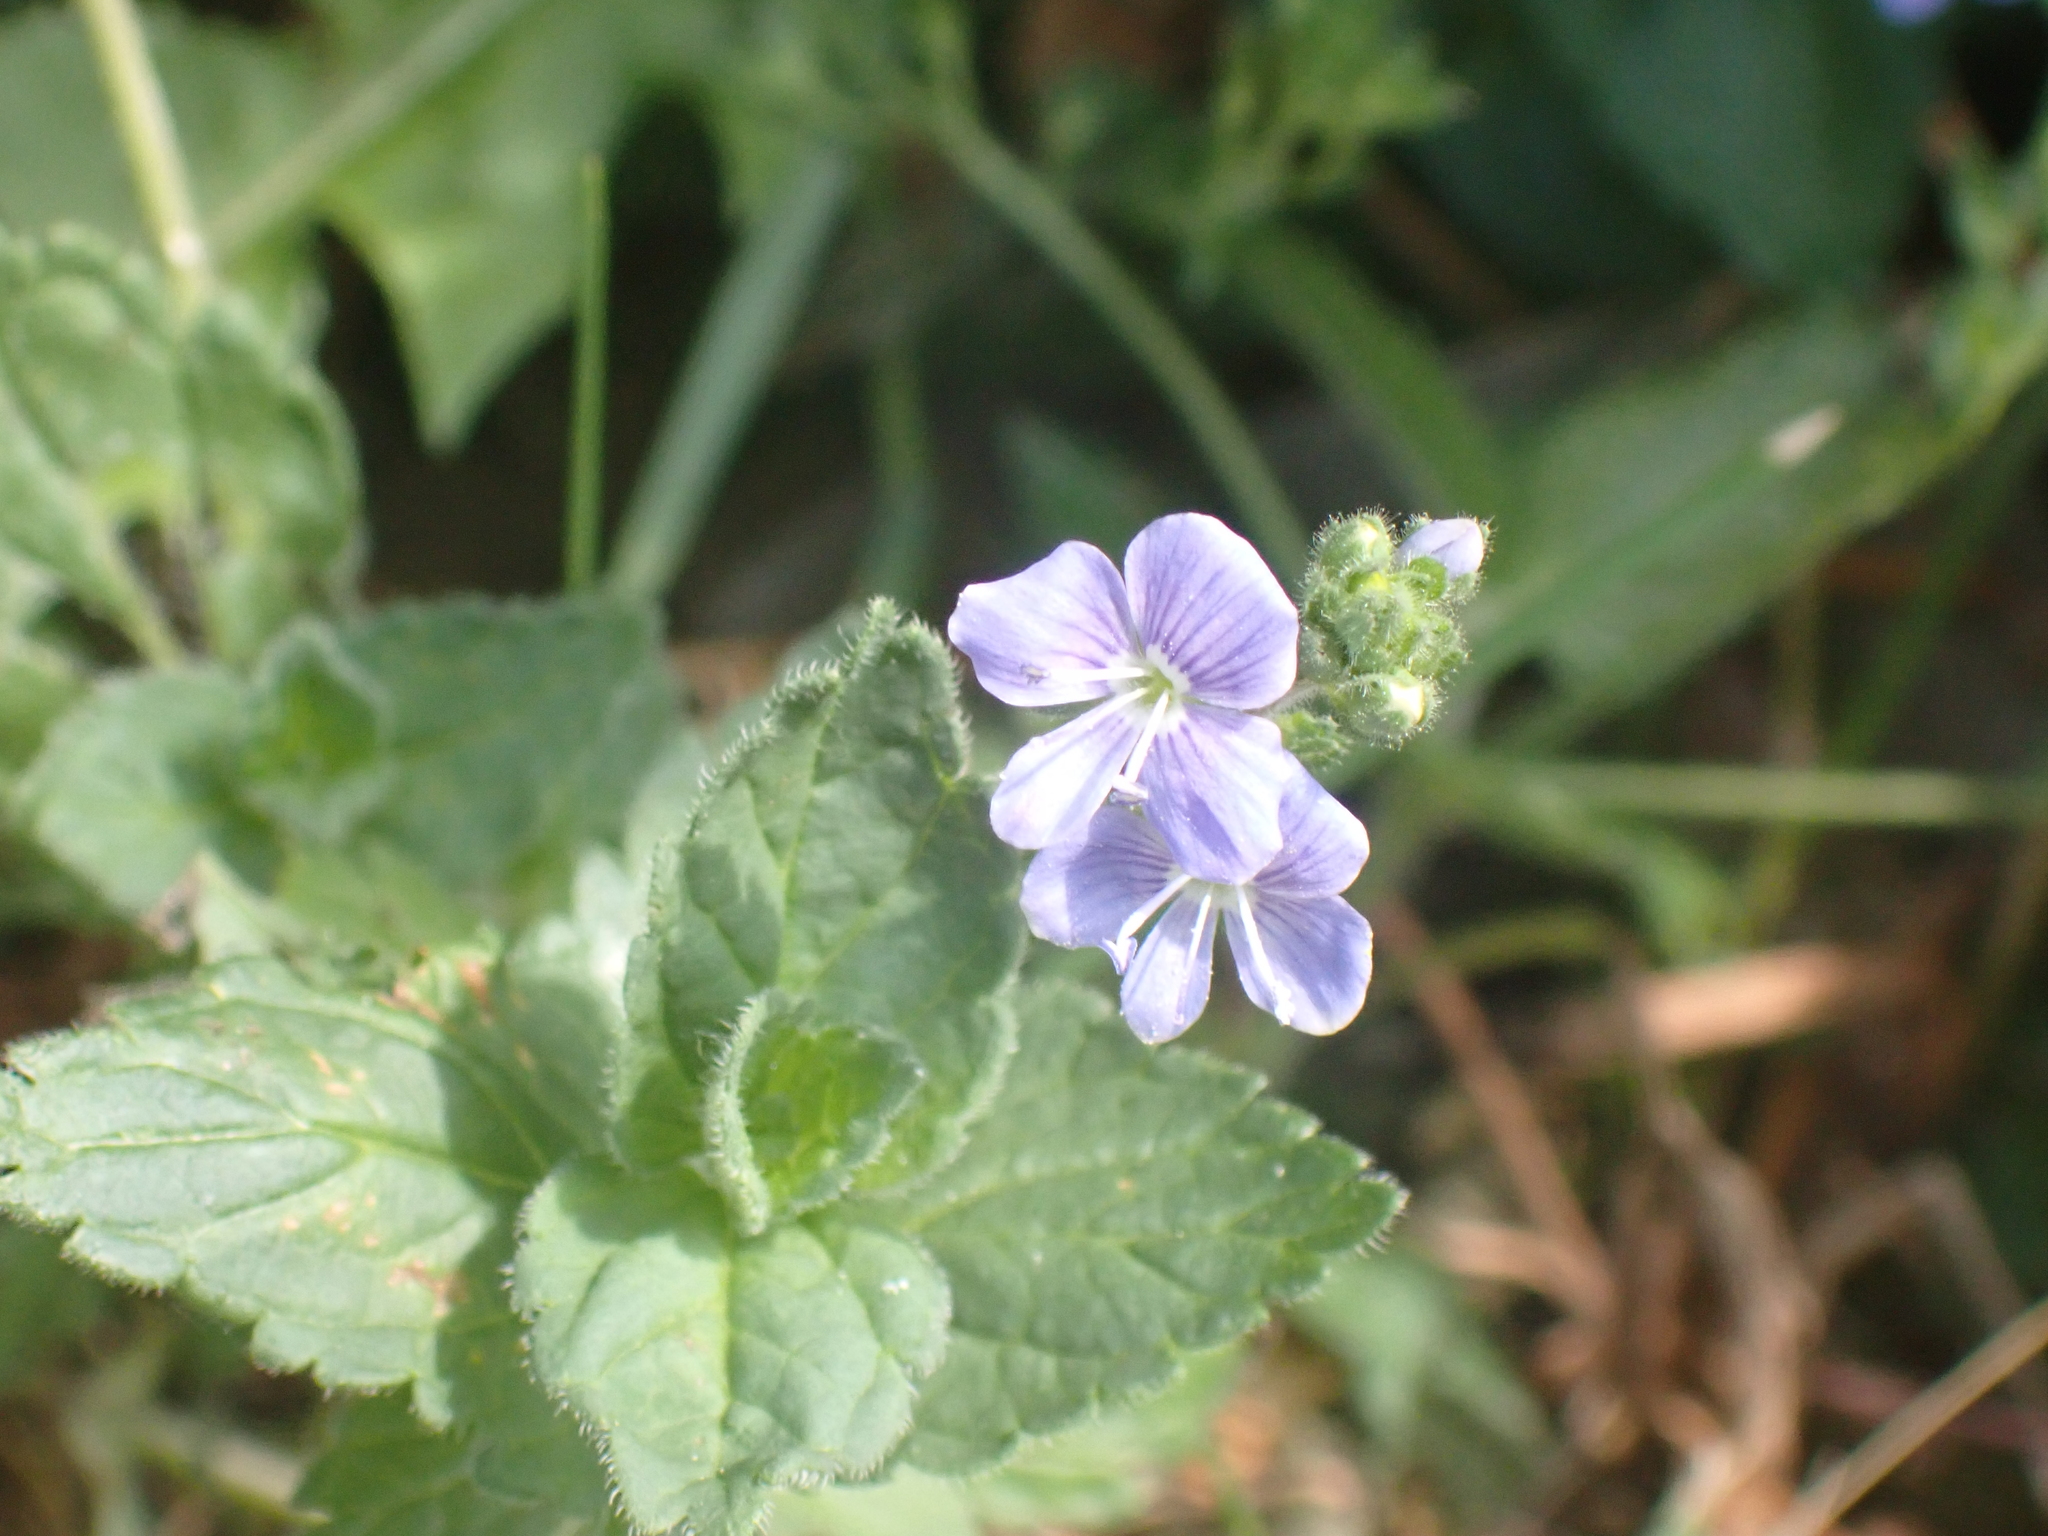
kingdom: Plantae
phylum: Tracheophyta
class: Magnoliopsida
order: Lamiales
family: Plantaginaceae
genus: Veronica
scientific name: Veronica chamaedrys
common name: Germander speedwell
